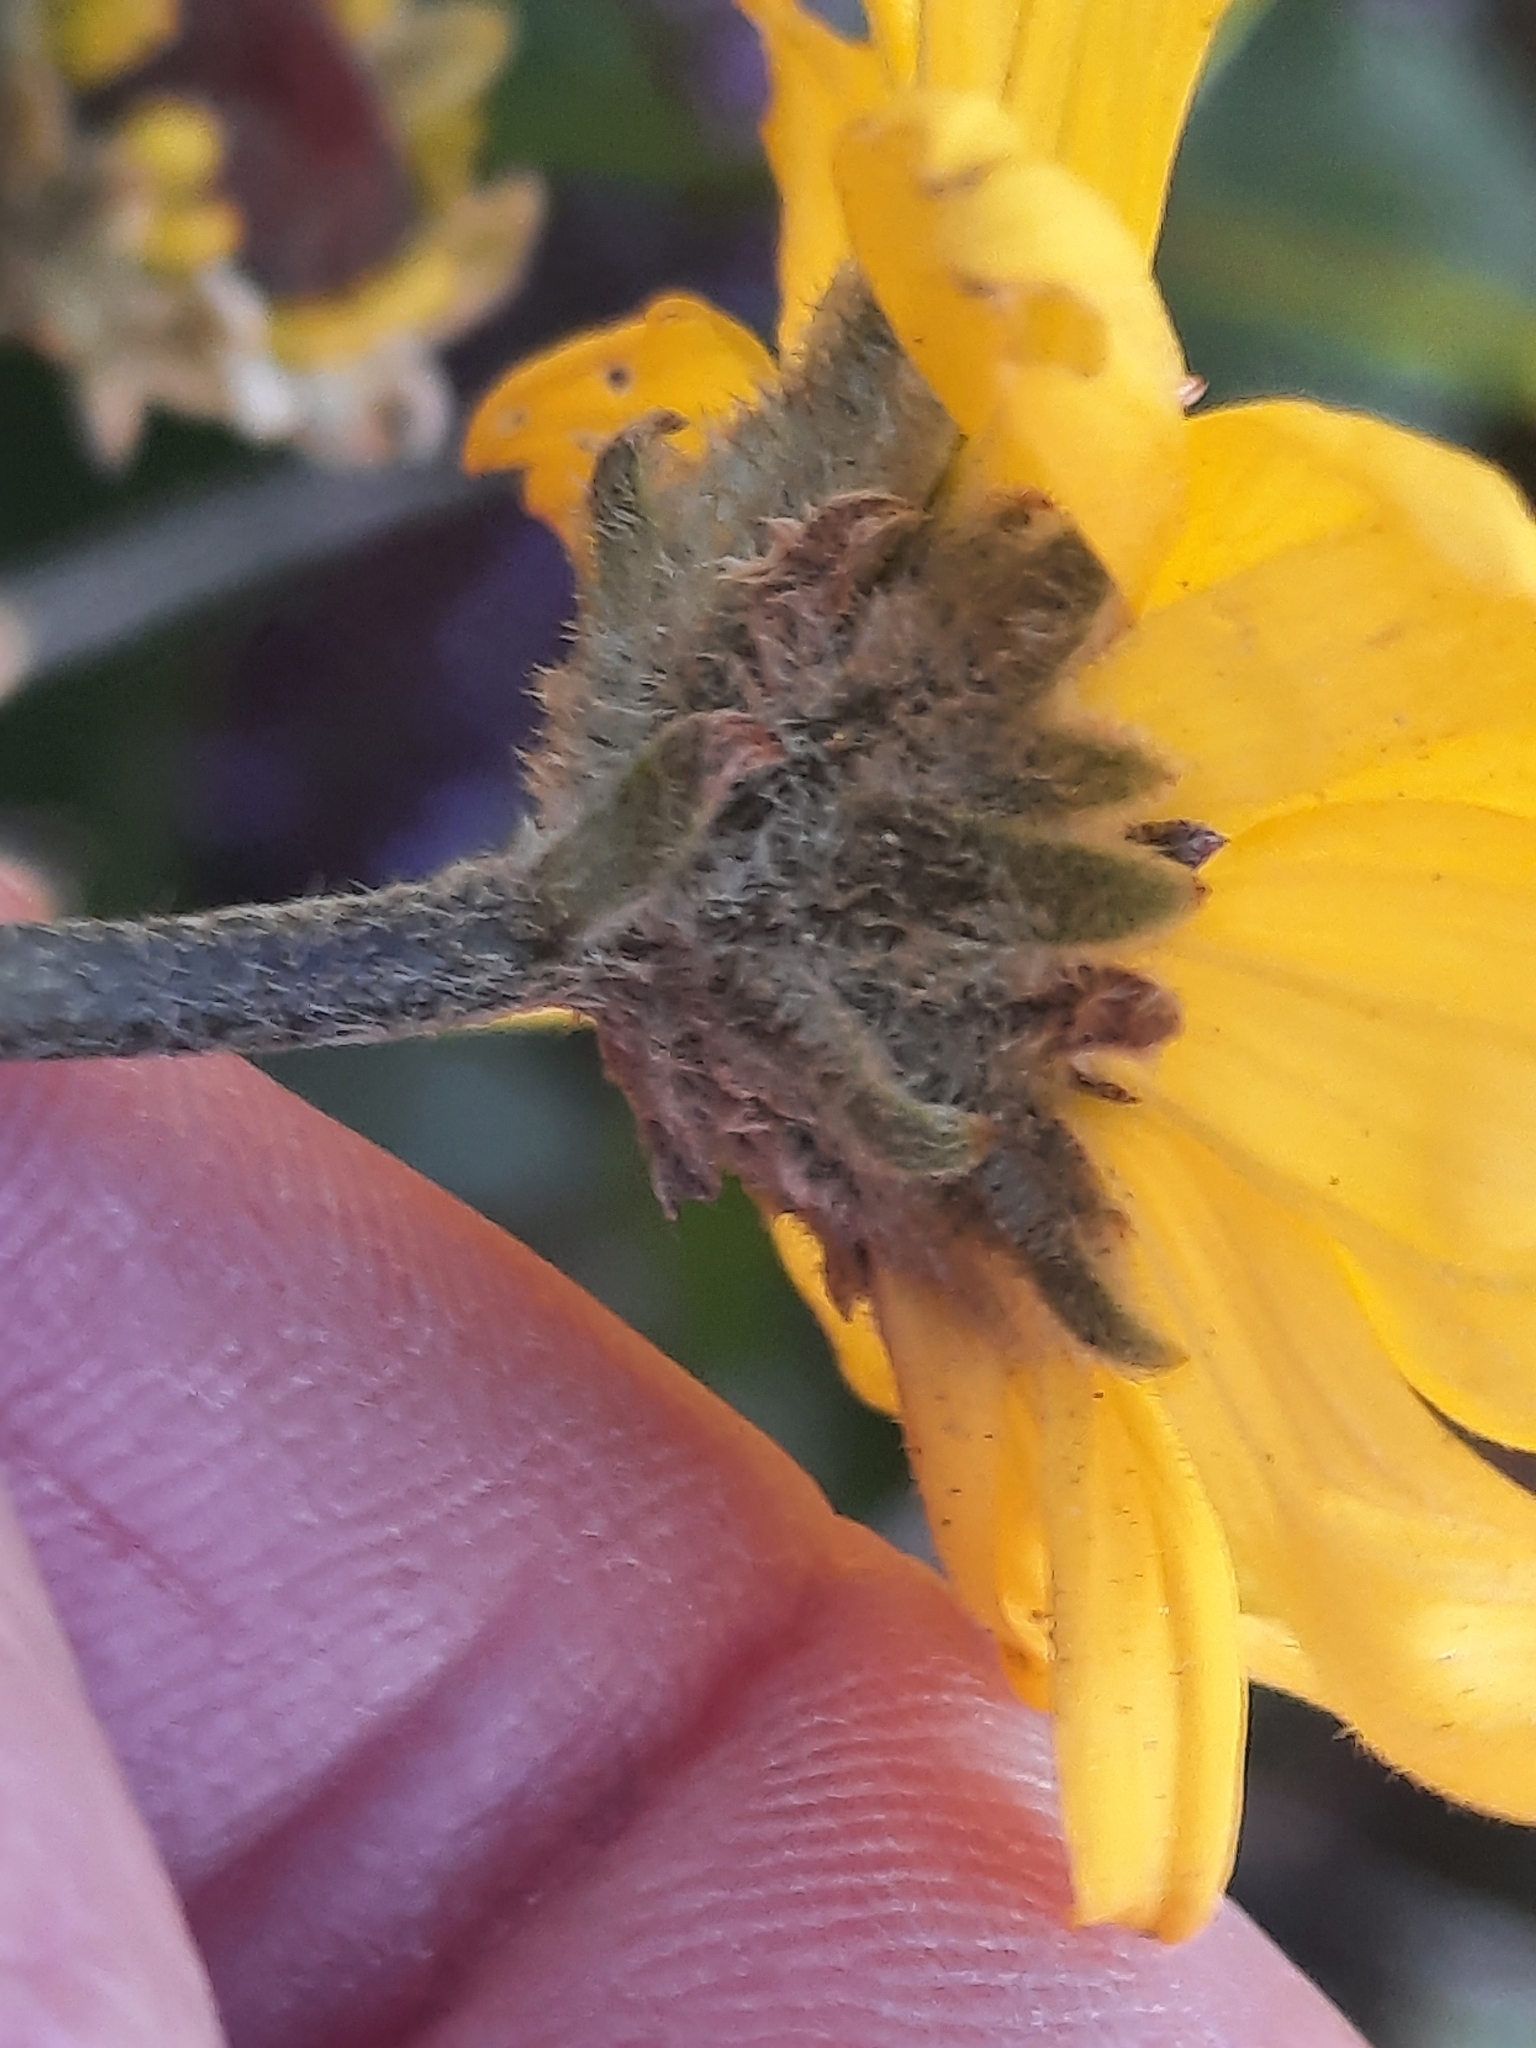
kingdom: Plantae
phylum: Tracheophyta
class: Magnoliopsida
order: Asterales
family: Asteraceae
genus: Encelia
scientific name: Encelia californica
